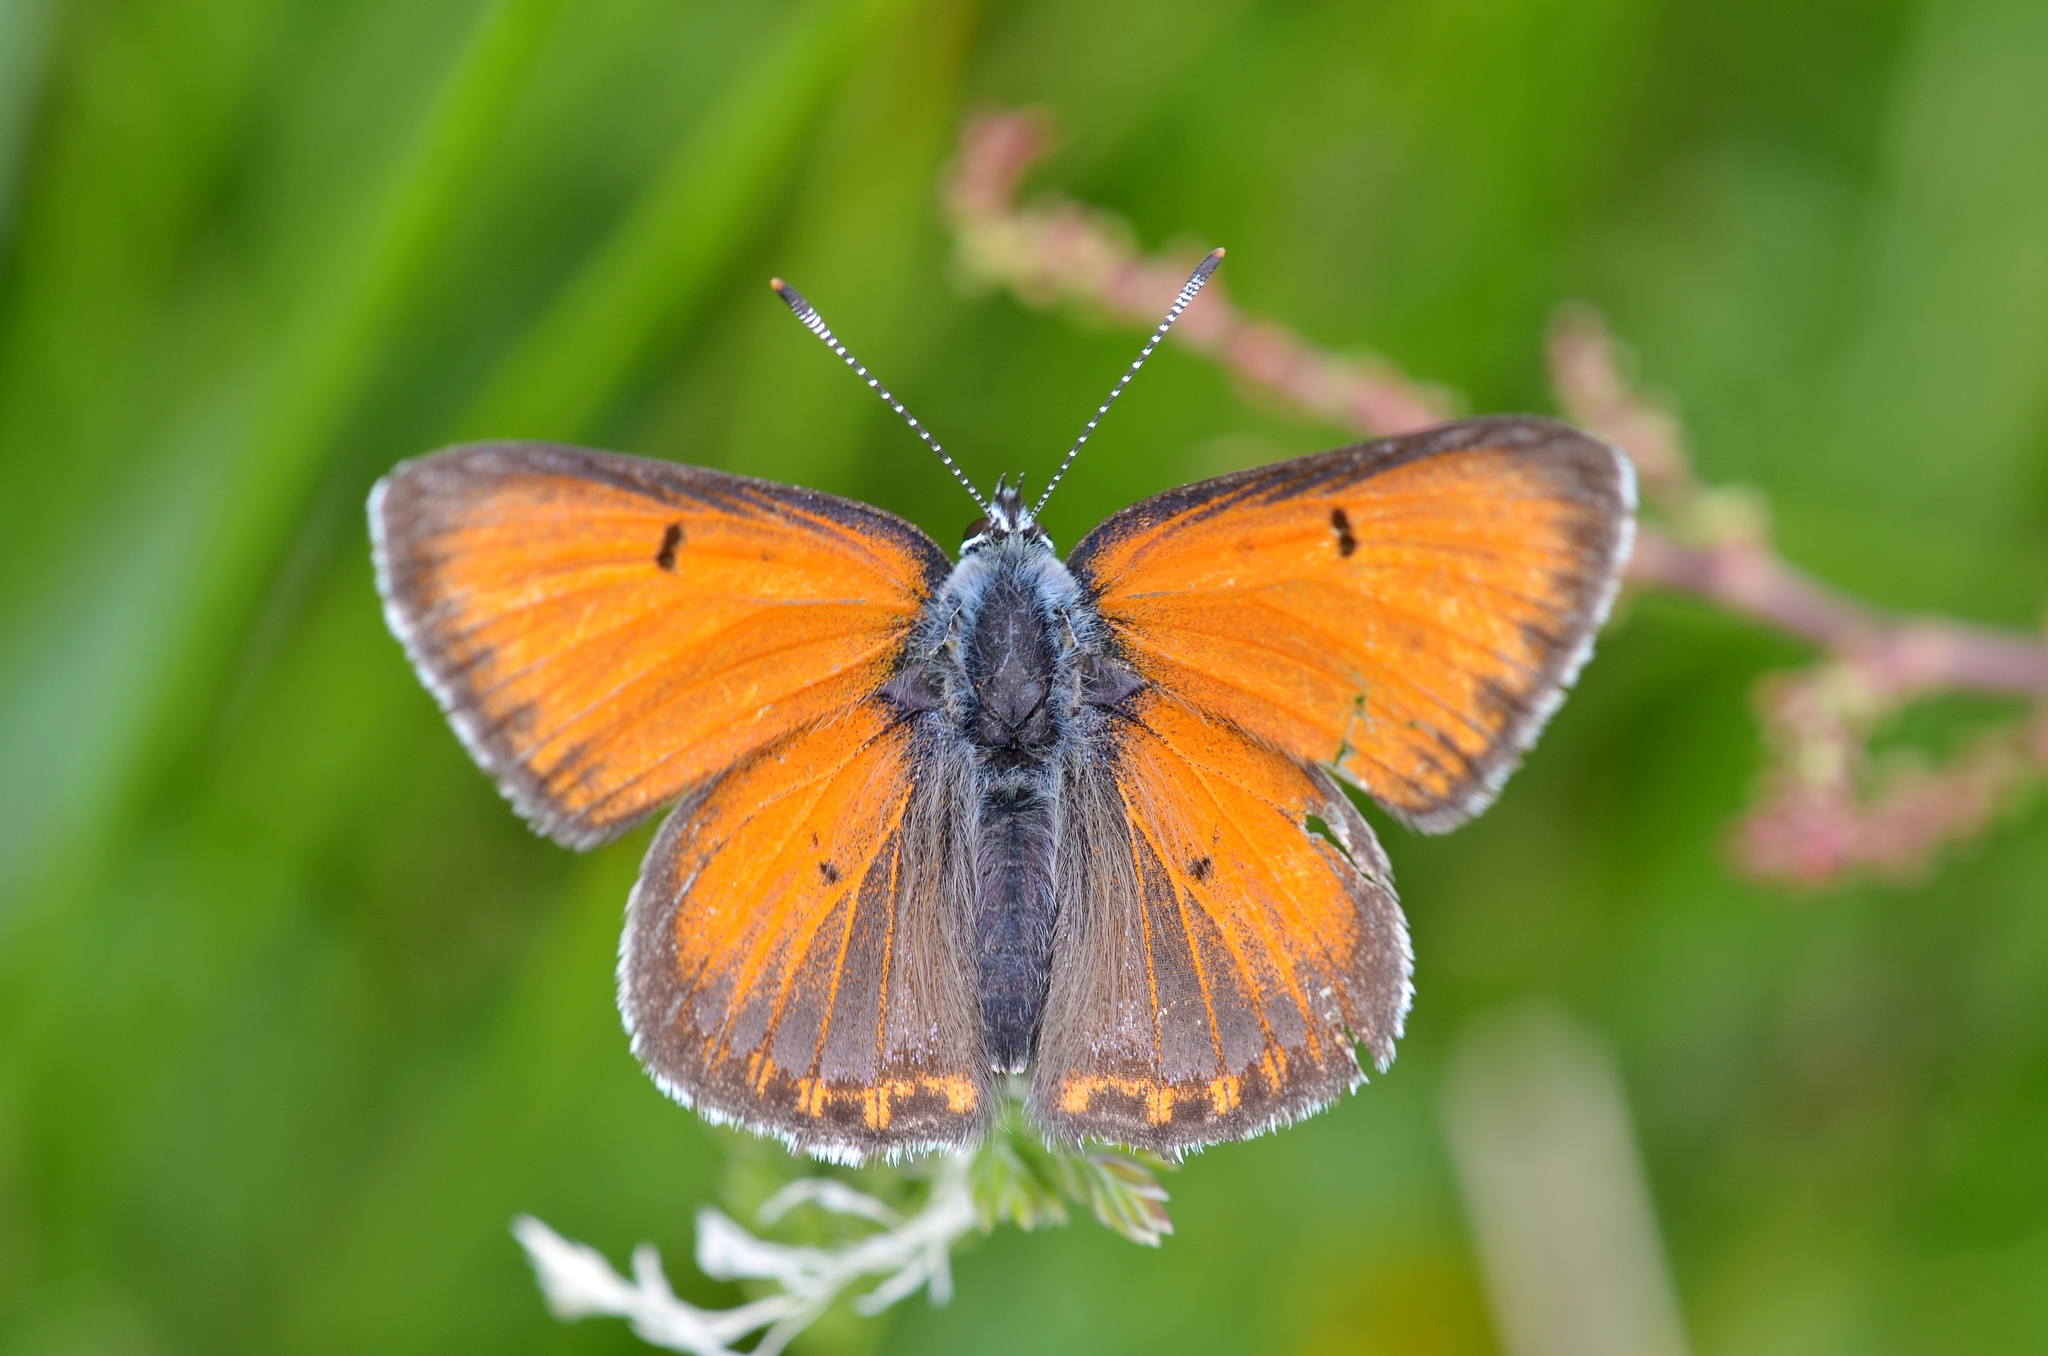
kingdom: Animalia
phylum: Arthropoda
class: Insecta
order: Lepidoptera
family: Lycaenidae
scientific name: Lycaenidae
